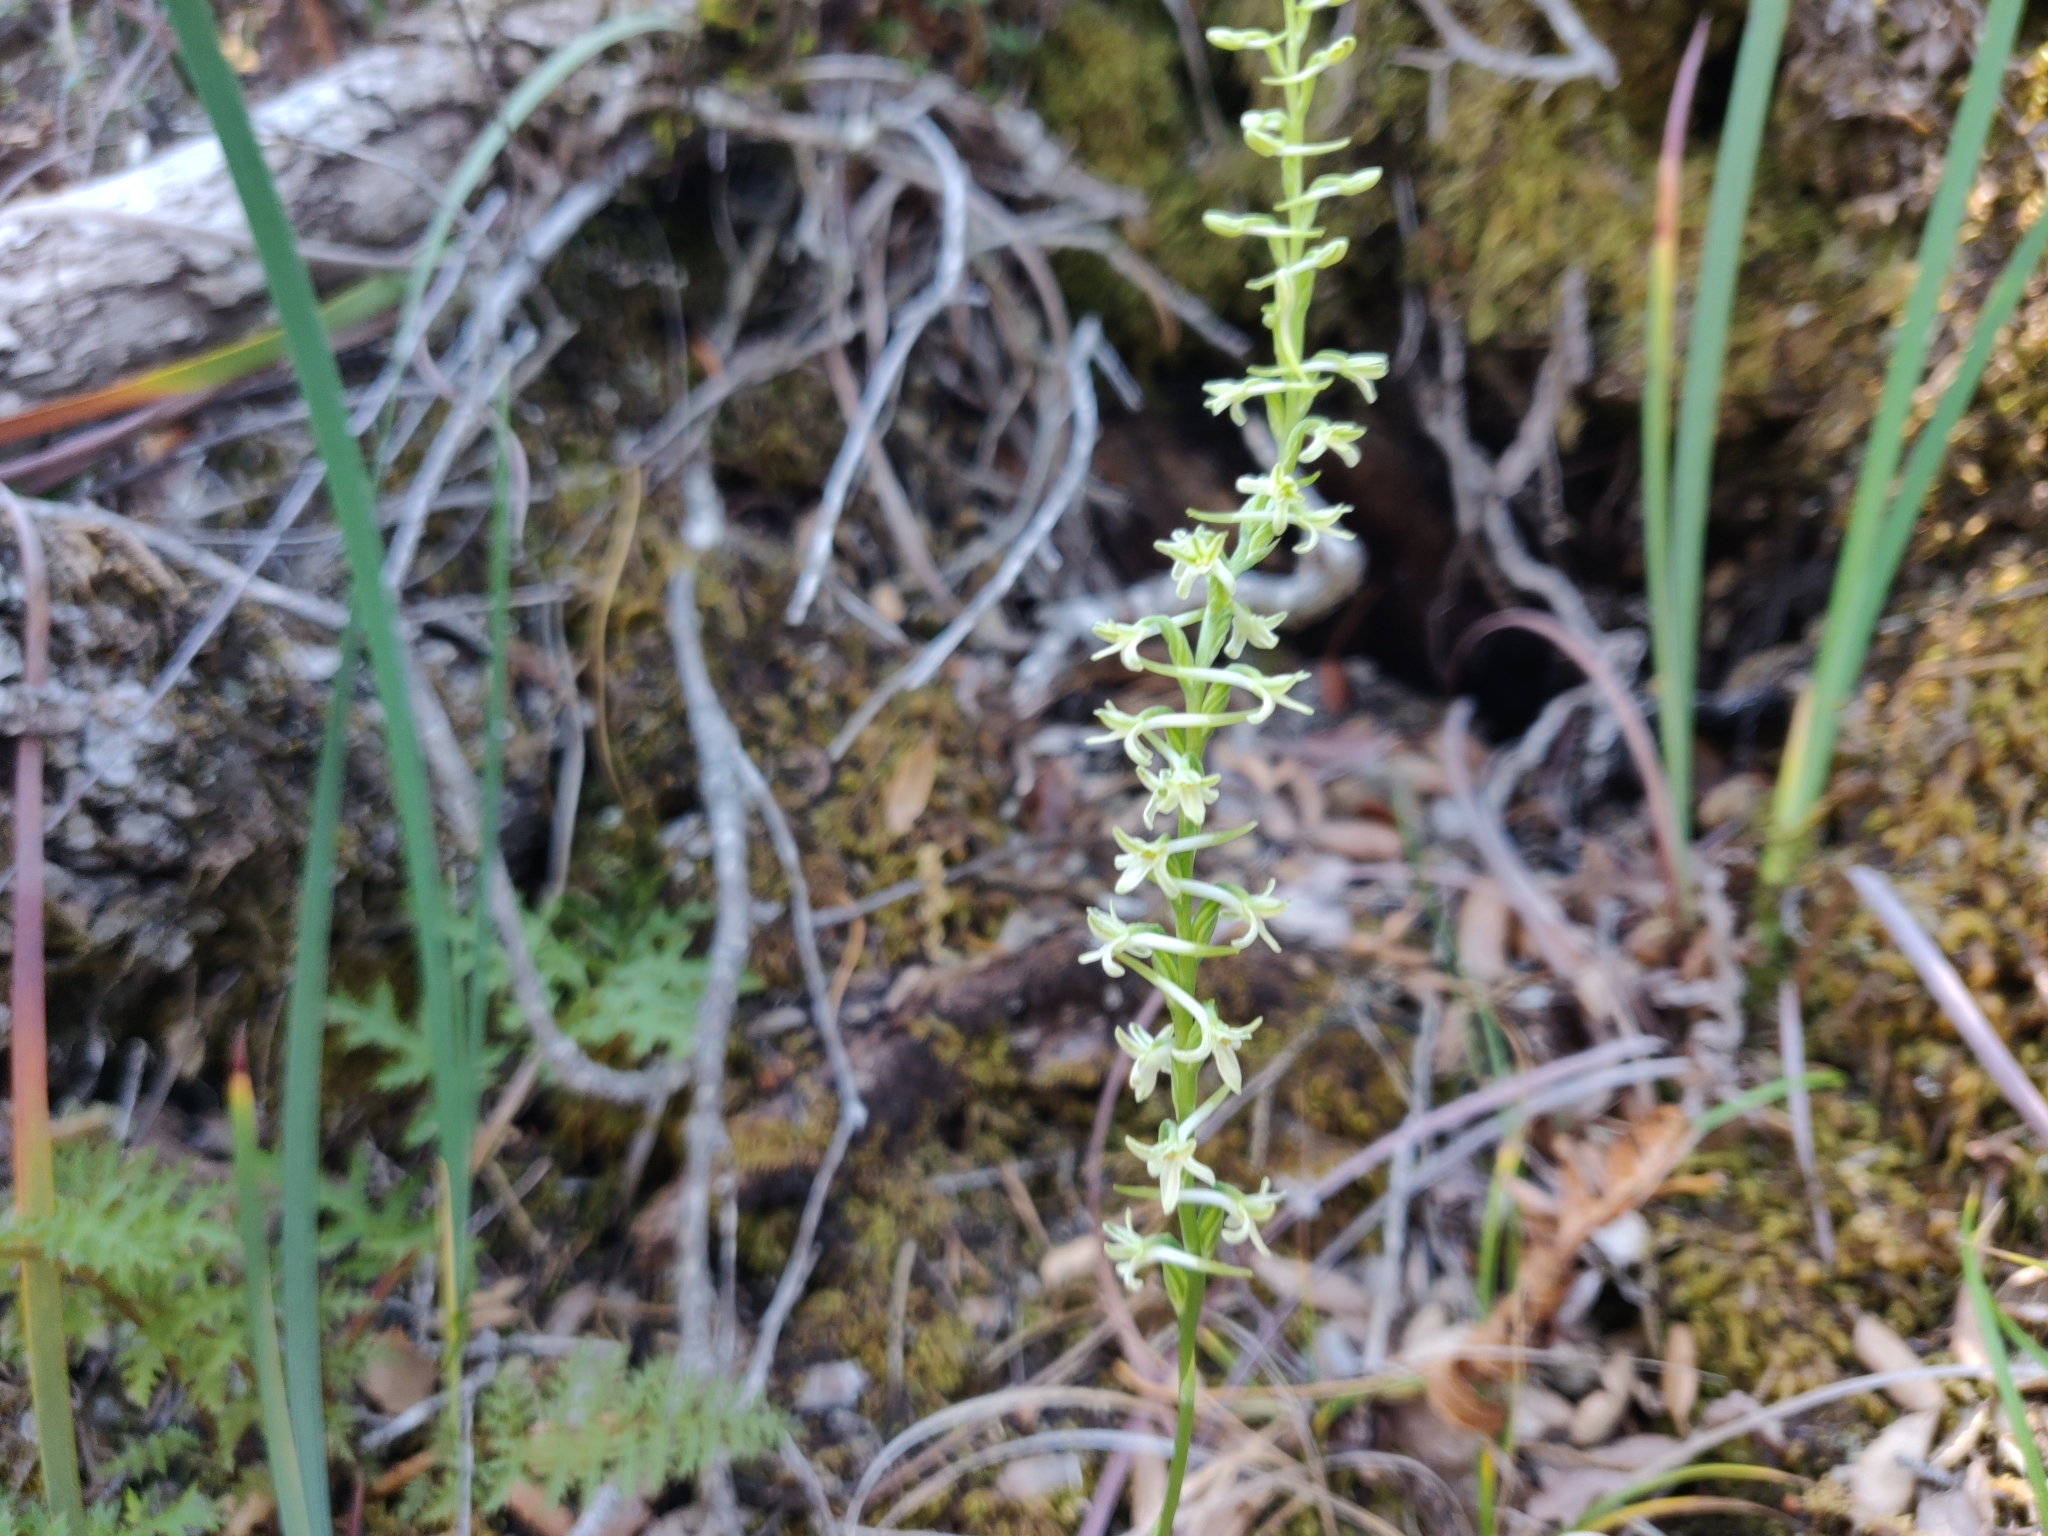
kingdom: Plantae
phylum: Tracheophyta
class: Liliopsida
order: Asparagales
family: Orchidaceae
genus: Platanthera
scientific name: Platanthera transversa
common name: Royal rein orchid
